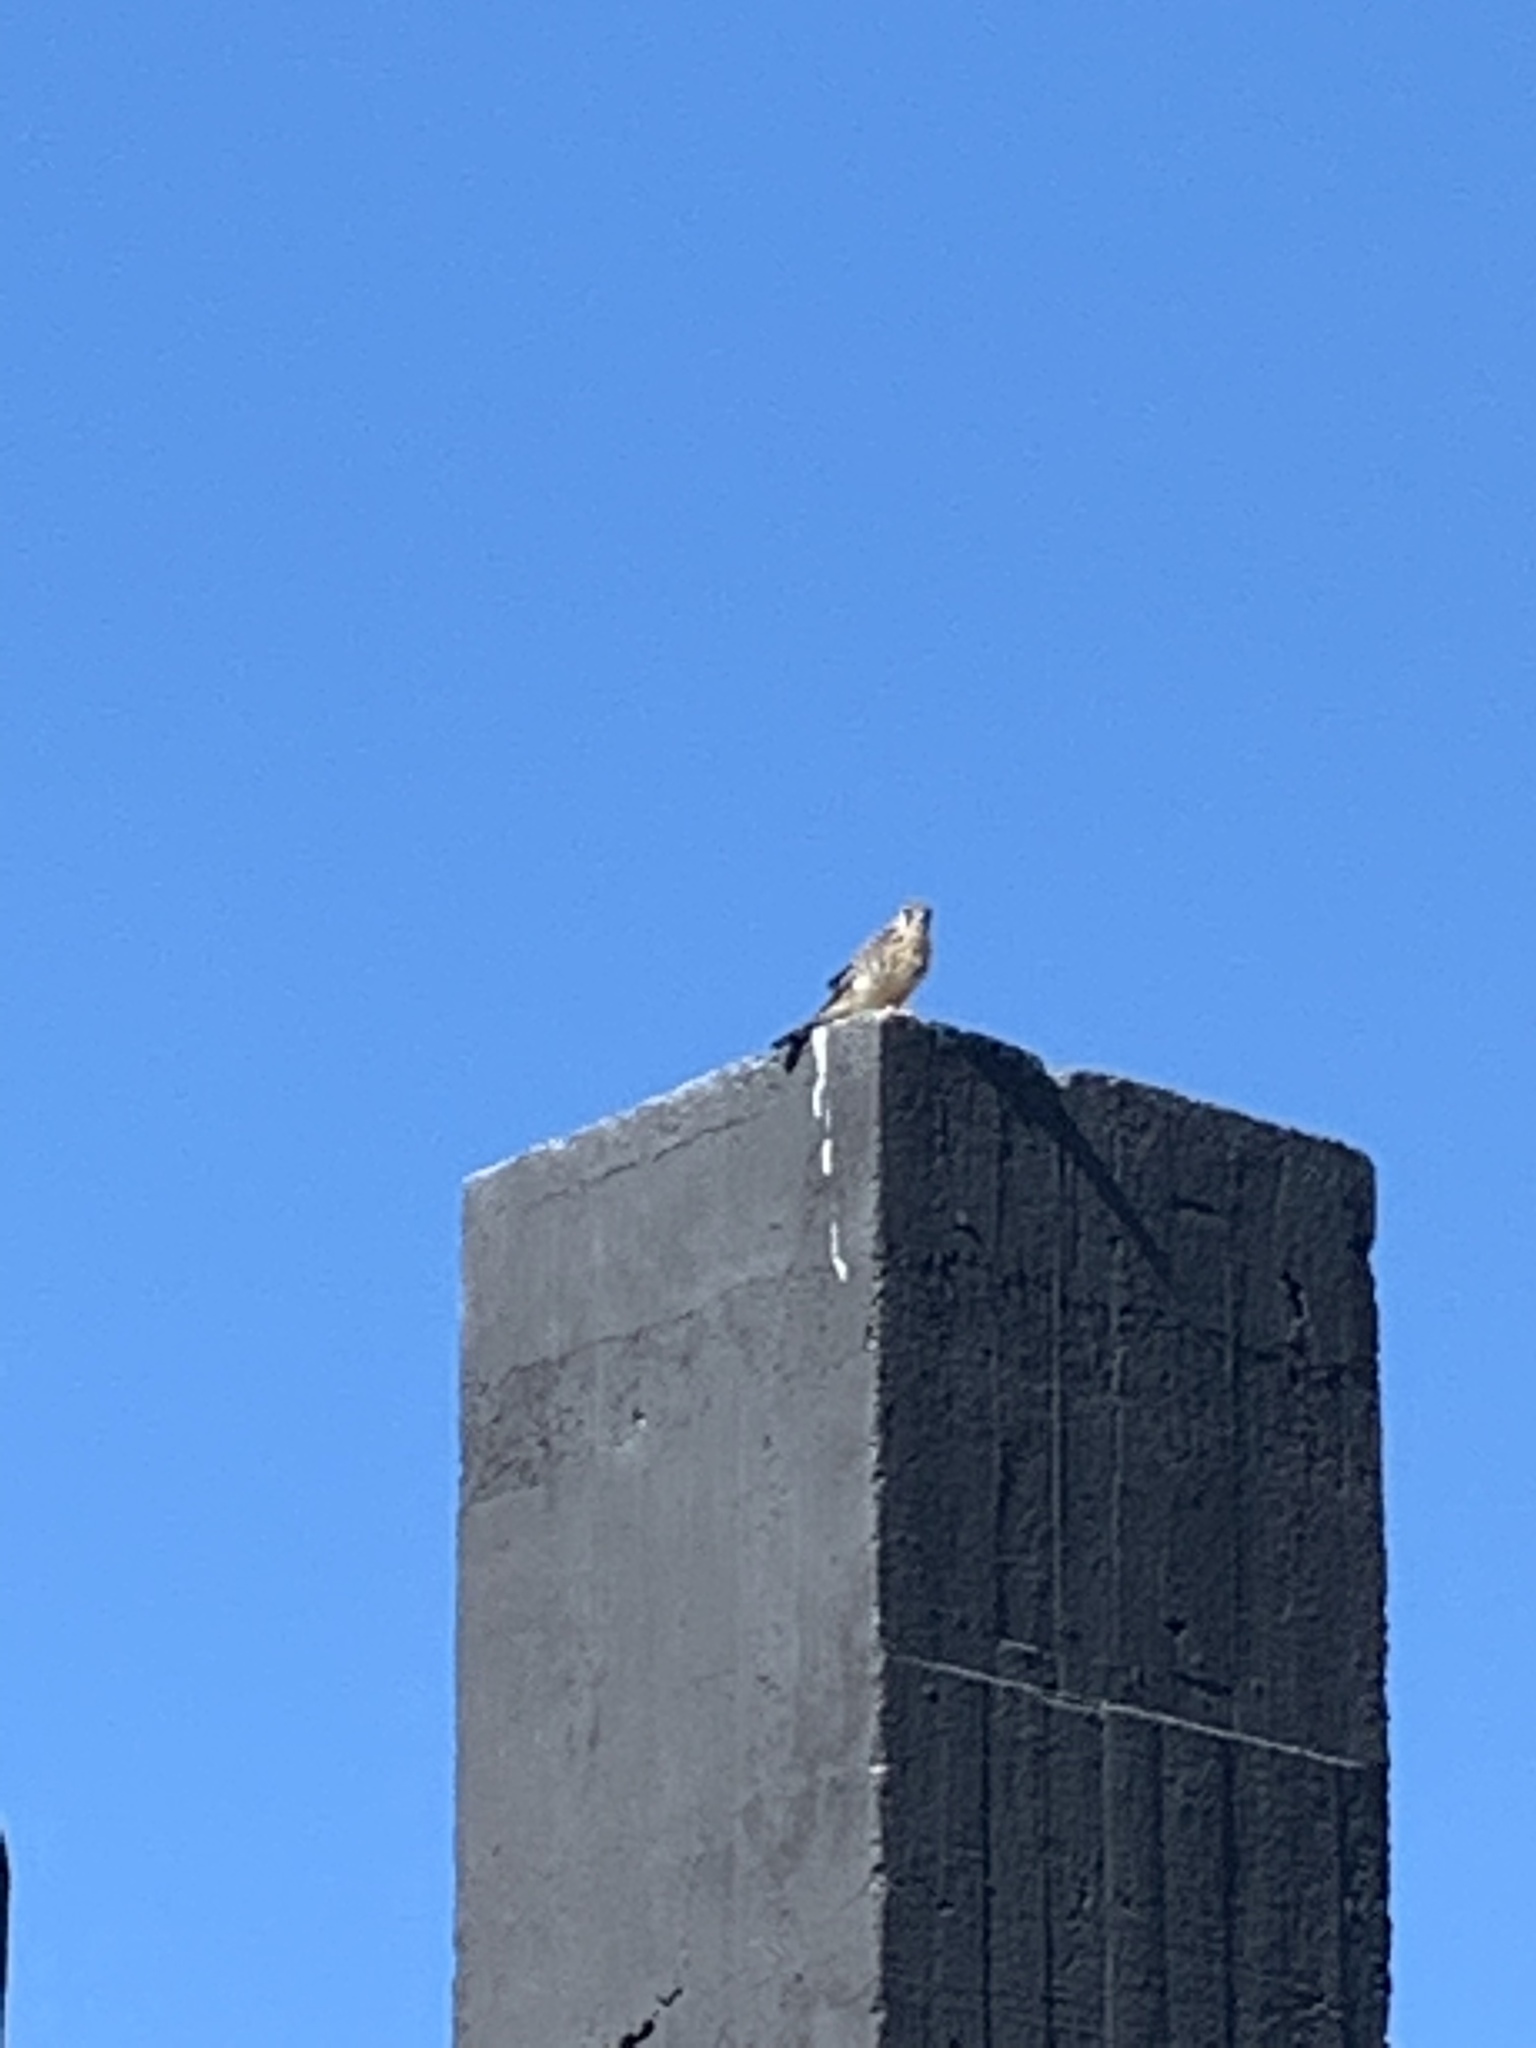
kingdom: Animalia
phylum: Chordata
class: Aves
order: Falconiformes
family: Falconidae
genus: Falco
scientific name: Falco sparverius
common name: American kestrel
